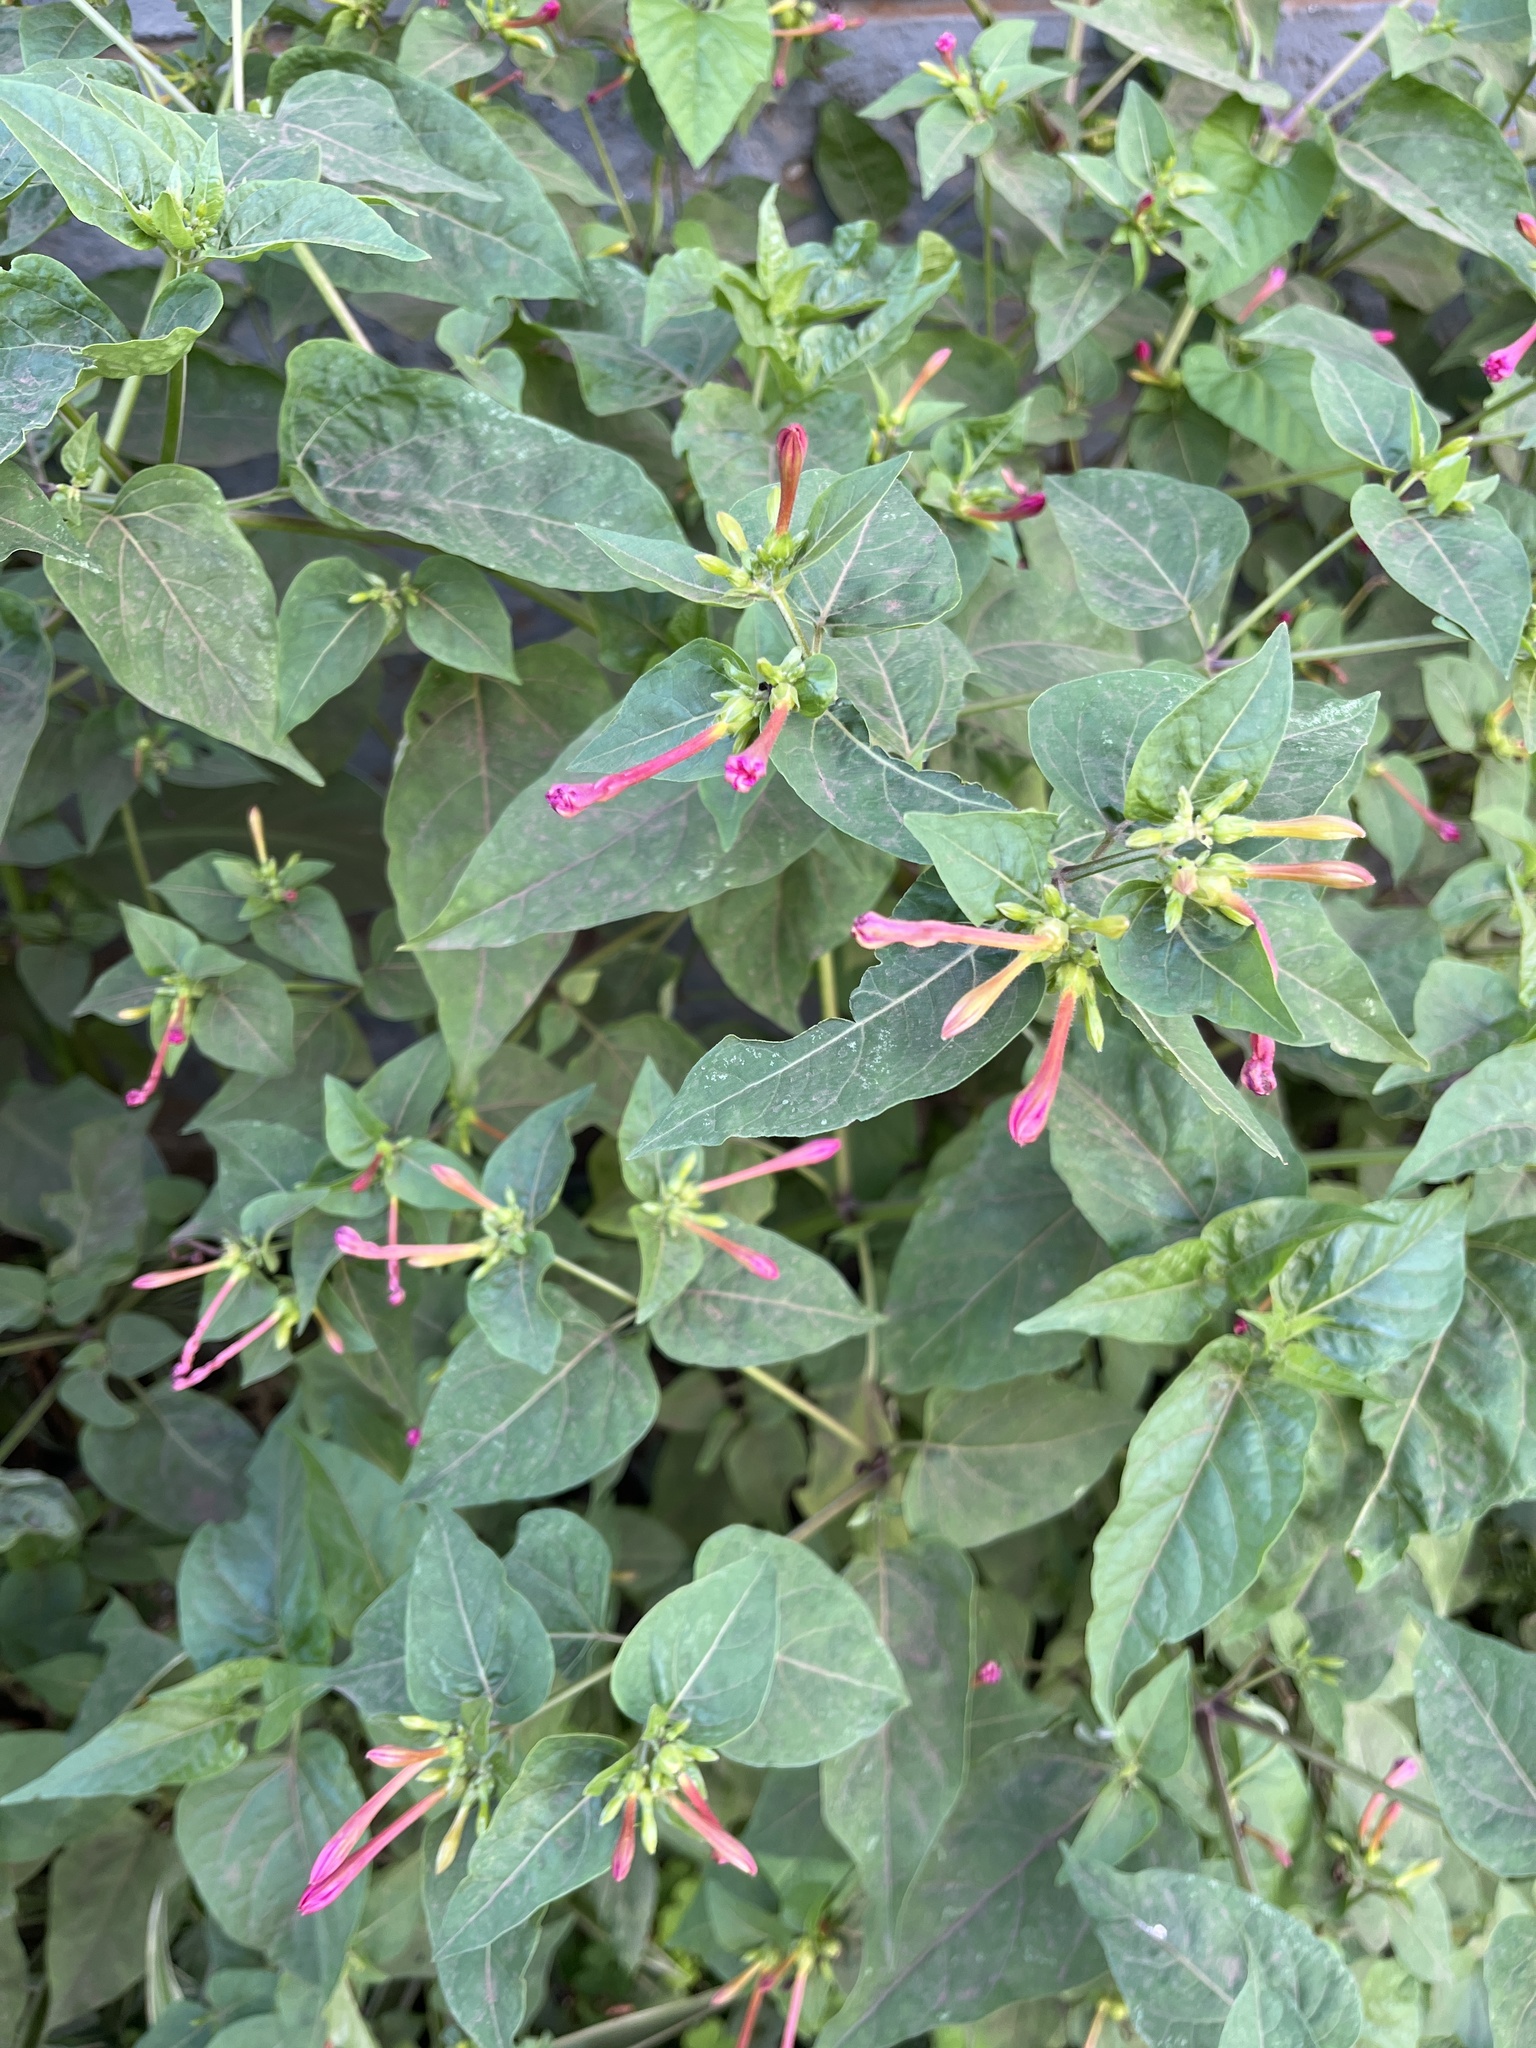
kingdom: Plantae
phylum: Tracheophyta
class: Magnoliopsida
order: Caryophyllales
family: Nyctaginaceae
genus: Mirabilis
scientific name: Mirabilis jalapa
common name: Marvel-of-peru
